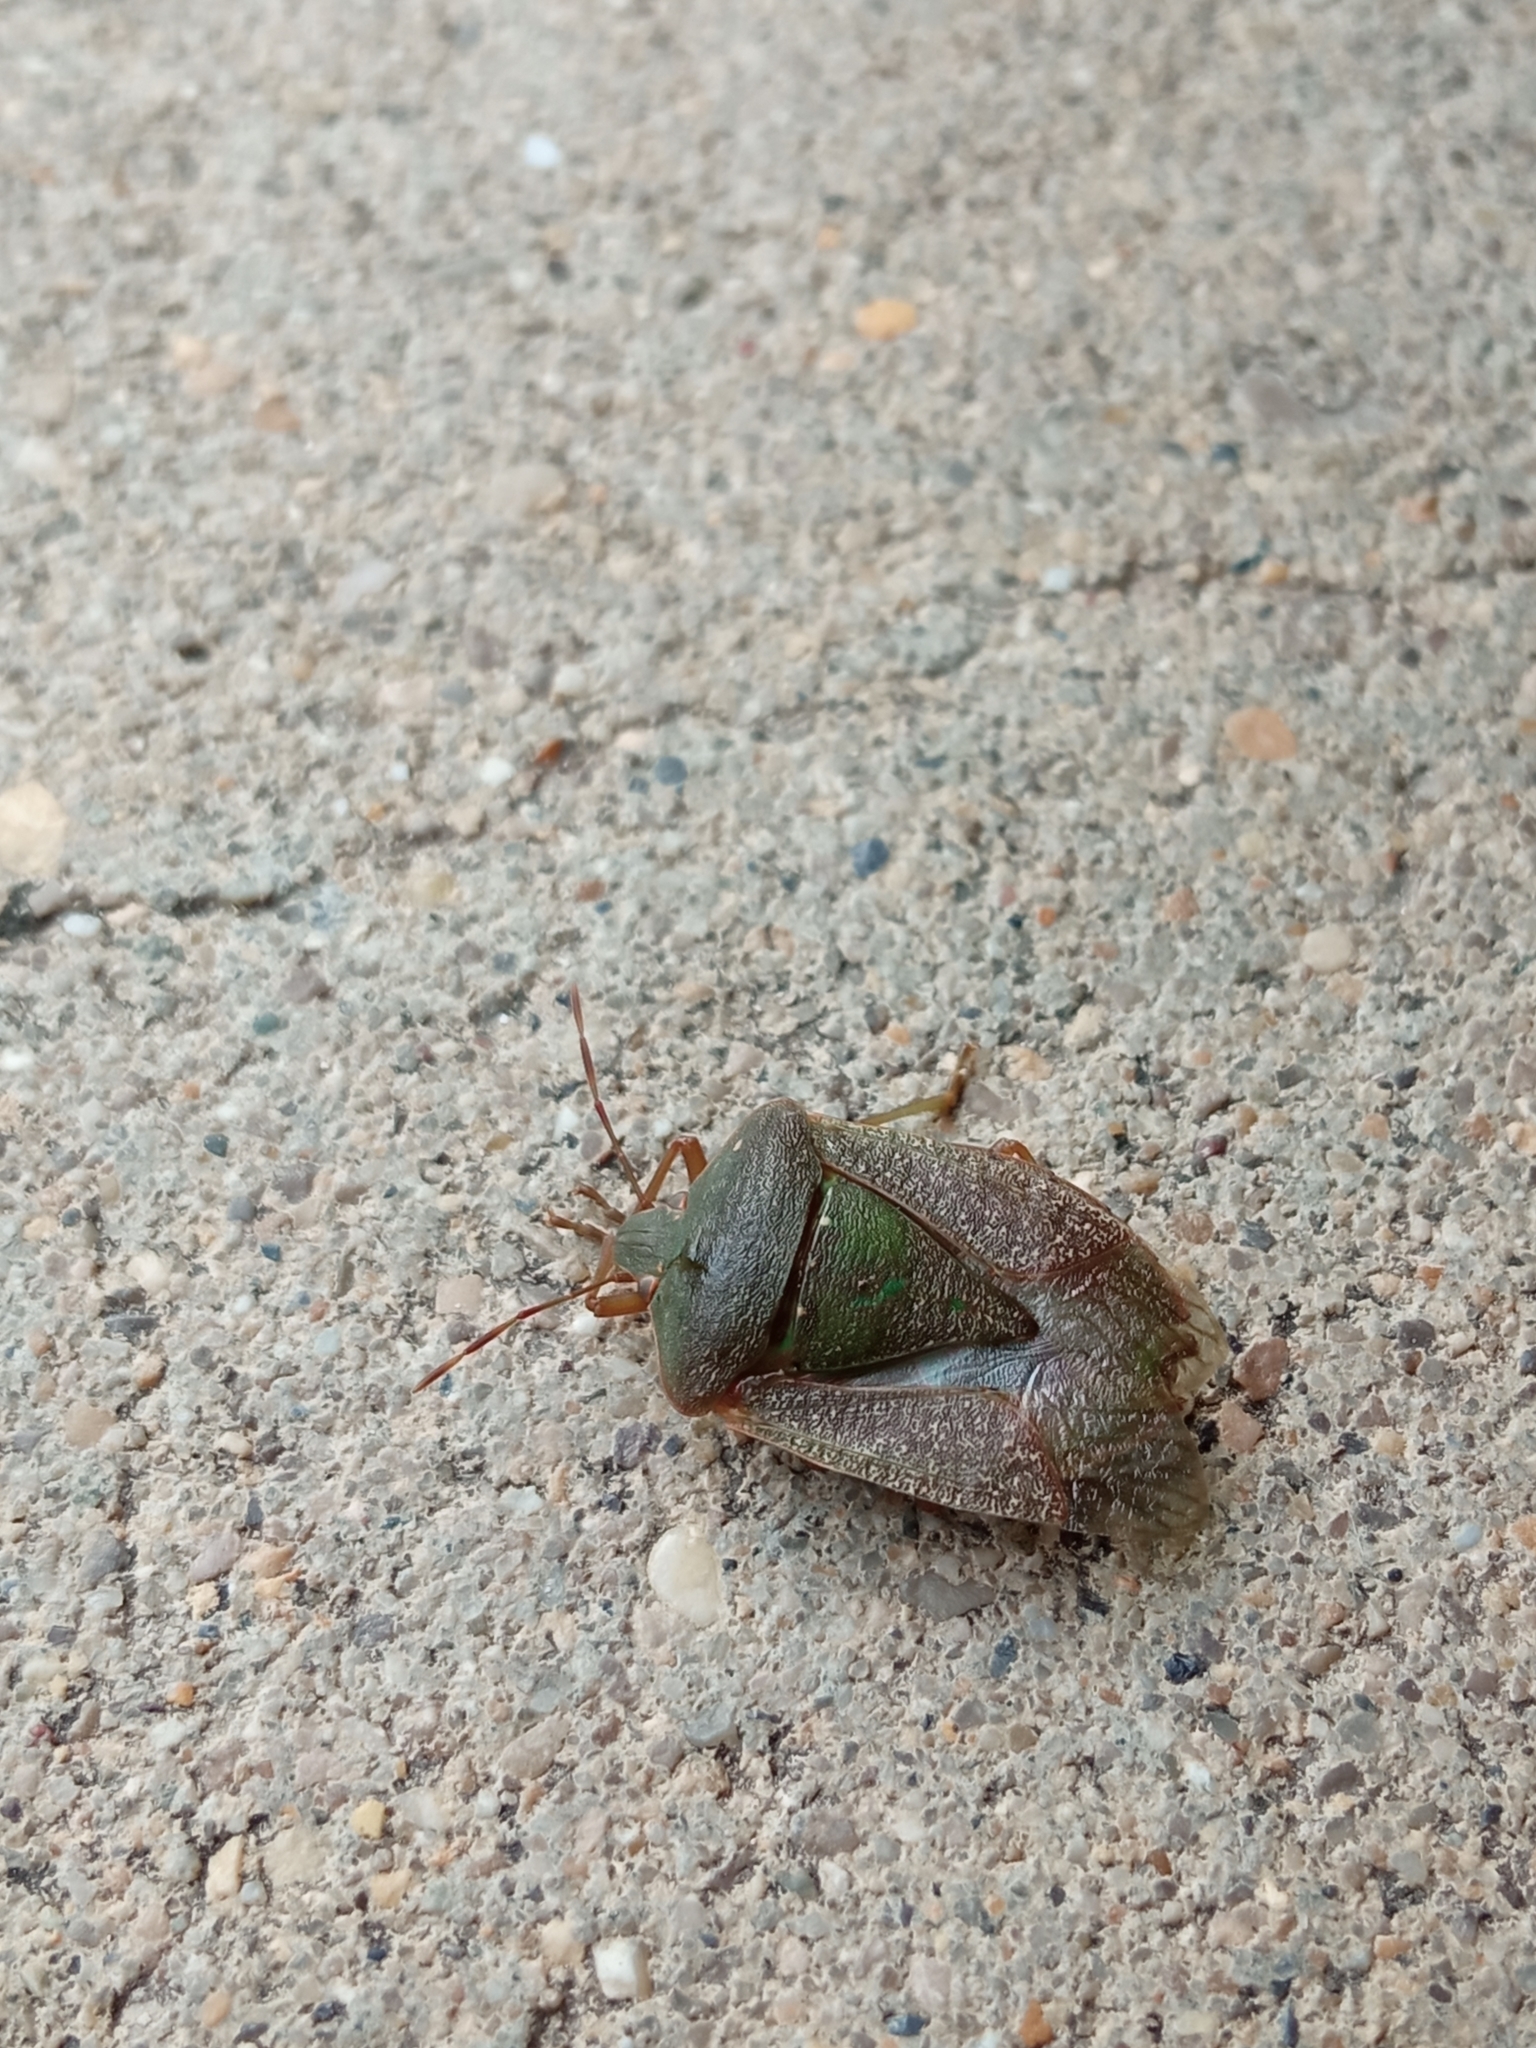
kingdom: Animalia
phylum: Arthropoda
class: Insecta
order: Hemiptera
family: Pentatomidae
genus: Nezara
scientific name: Nezara viridula
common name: Southern green stink bug
